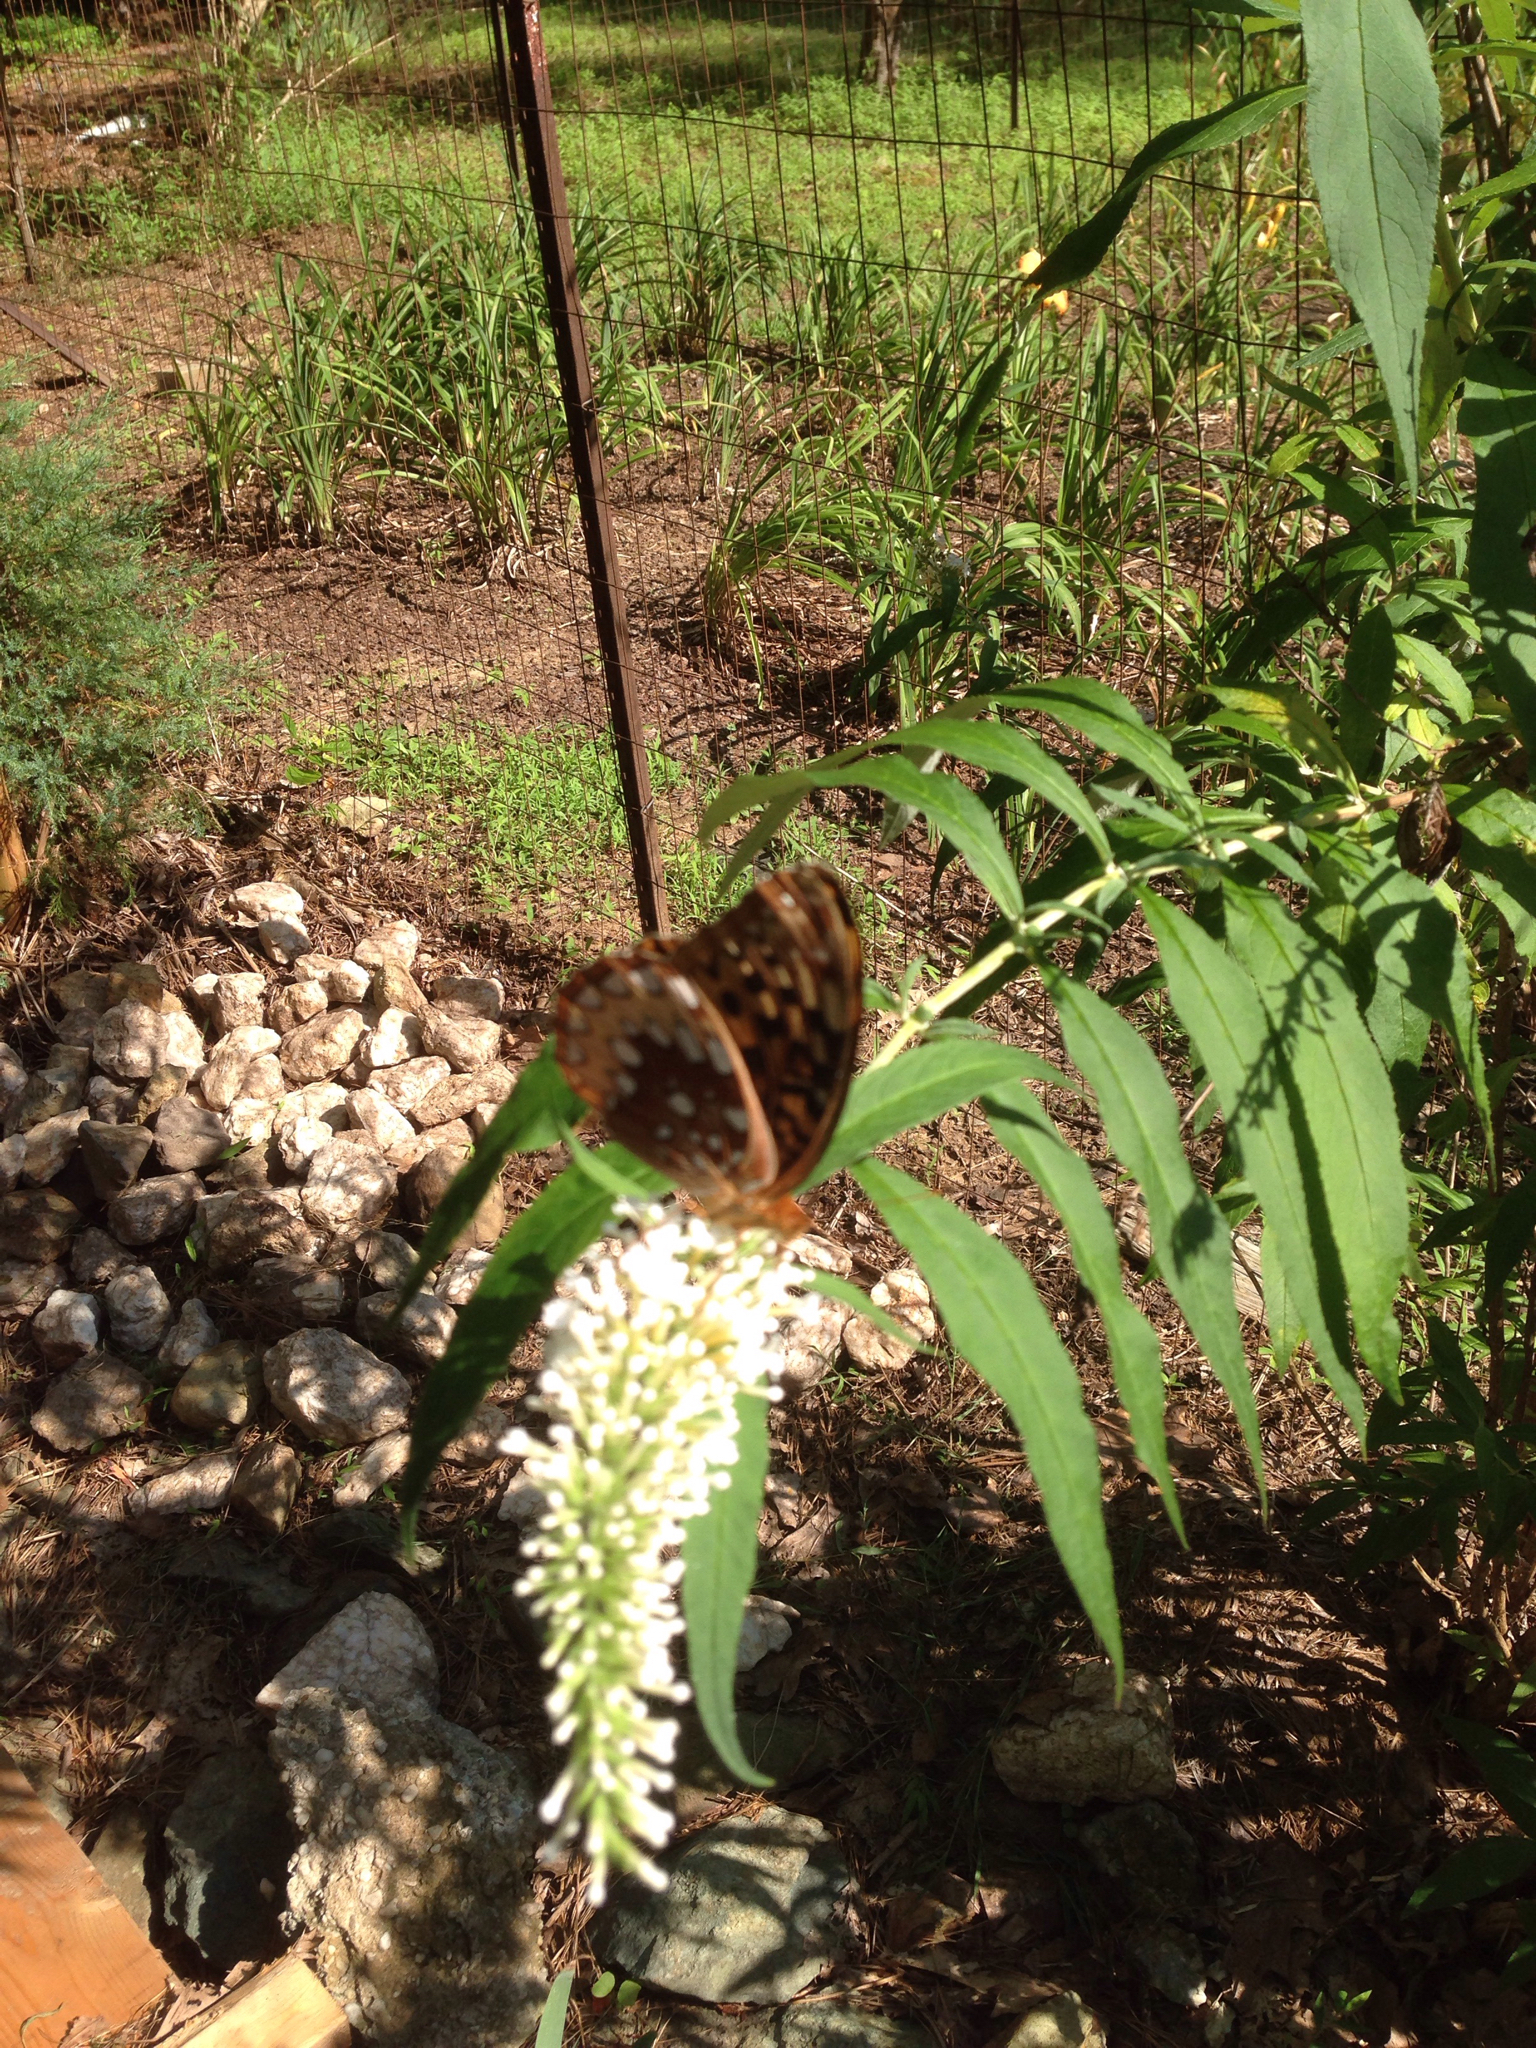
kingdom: Animalia
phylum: Arthropoda
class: Insecta
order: Lepidoptera
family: Nymphalidae
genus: Speyeria
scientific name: Speyeria cybele
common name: Great spangled fritillary
